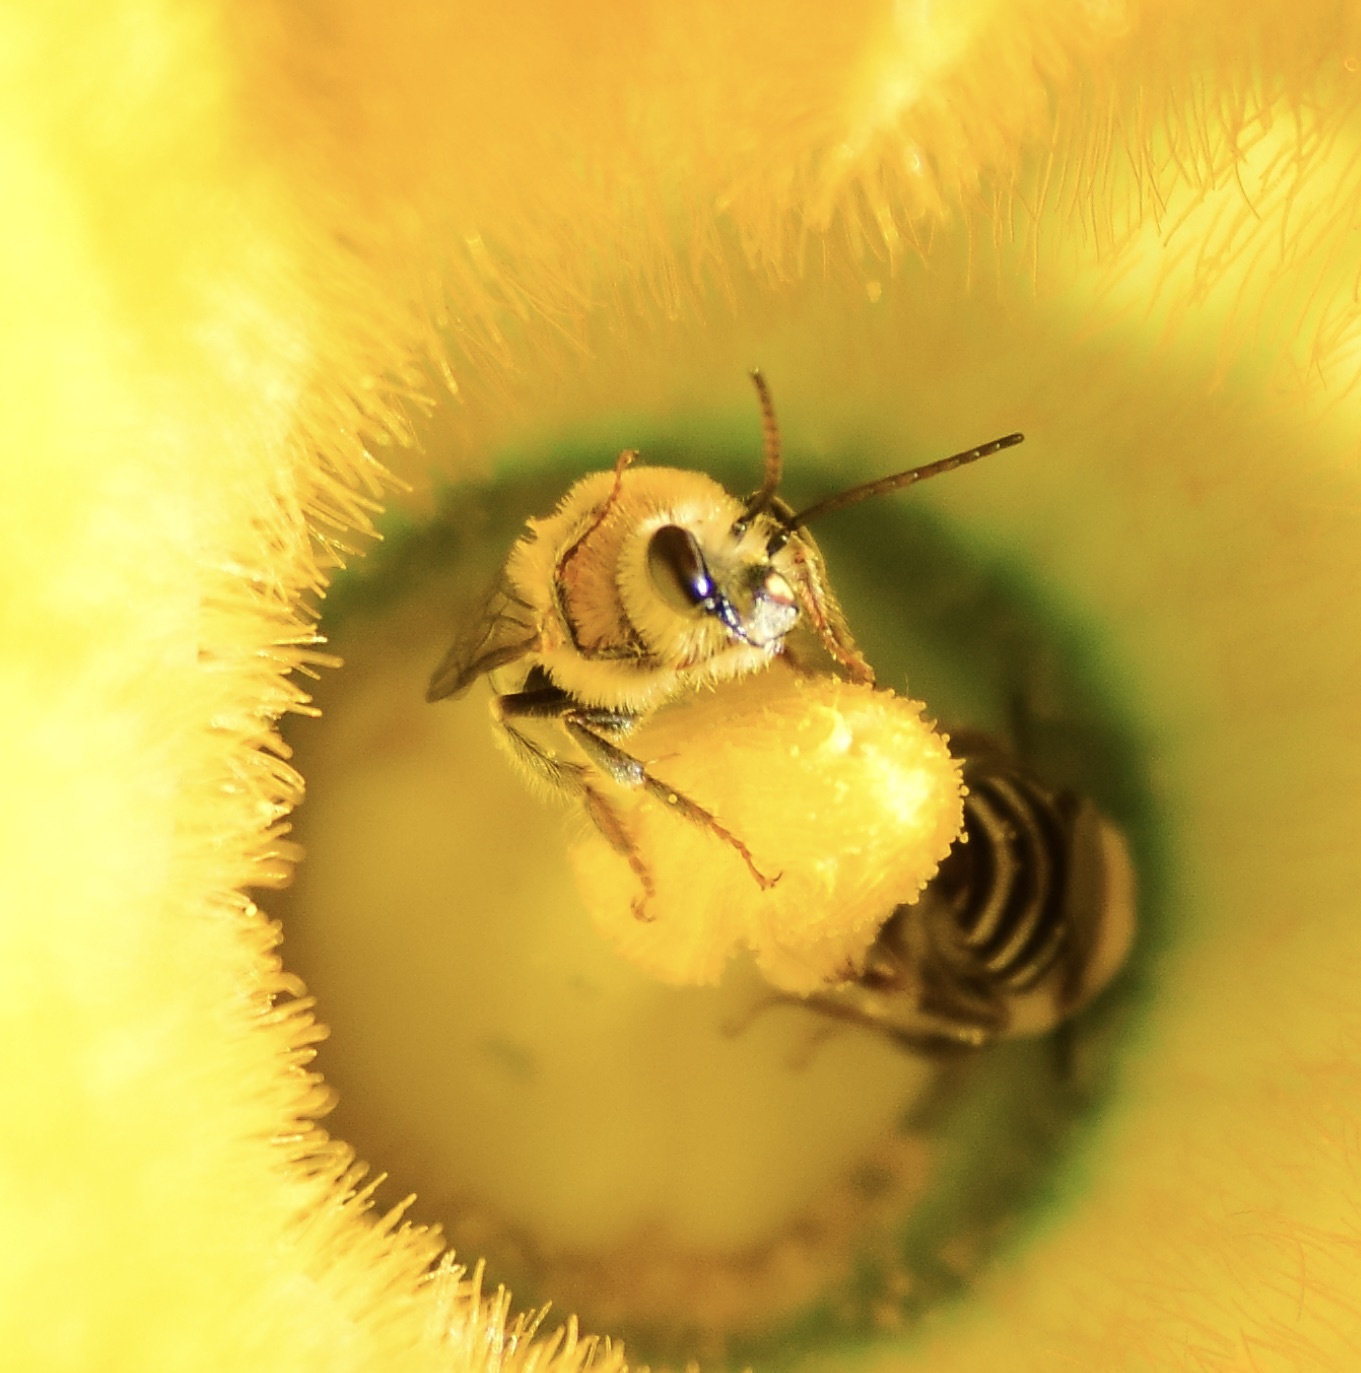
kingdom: Animalia
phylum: Arthropoda
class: Insecta
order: Hymenoptera
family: Apidae
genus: Peponapis
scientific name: Peponapis pruinosa
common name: Pruinose squash bee
